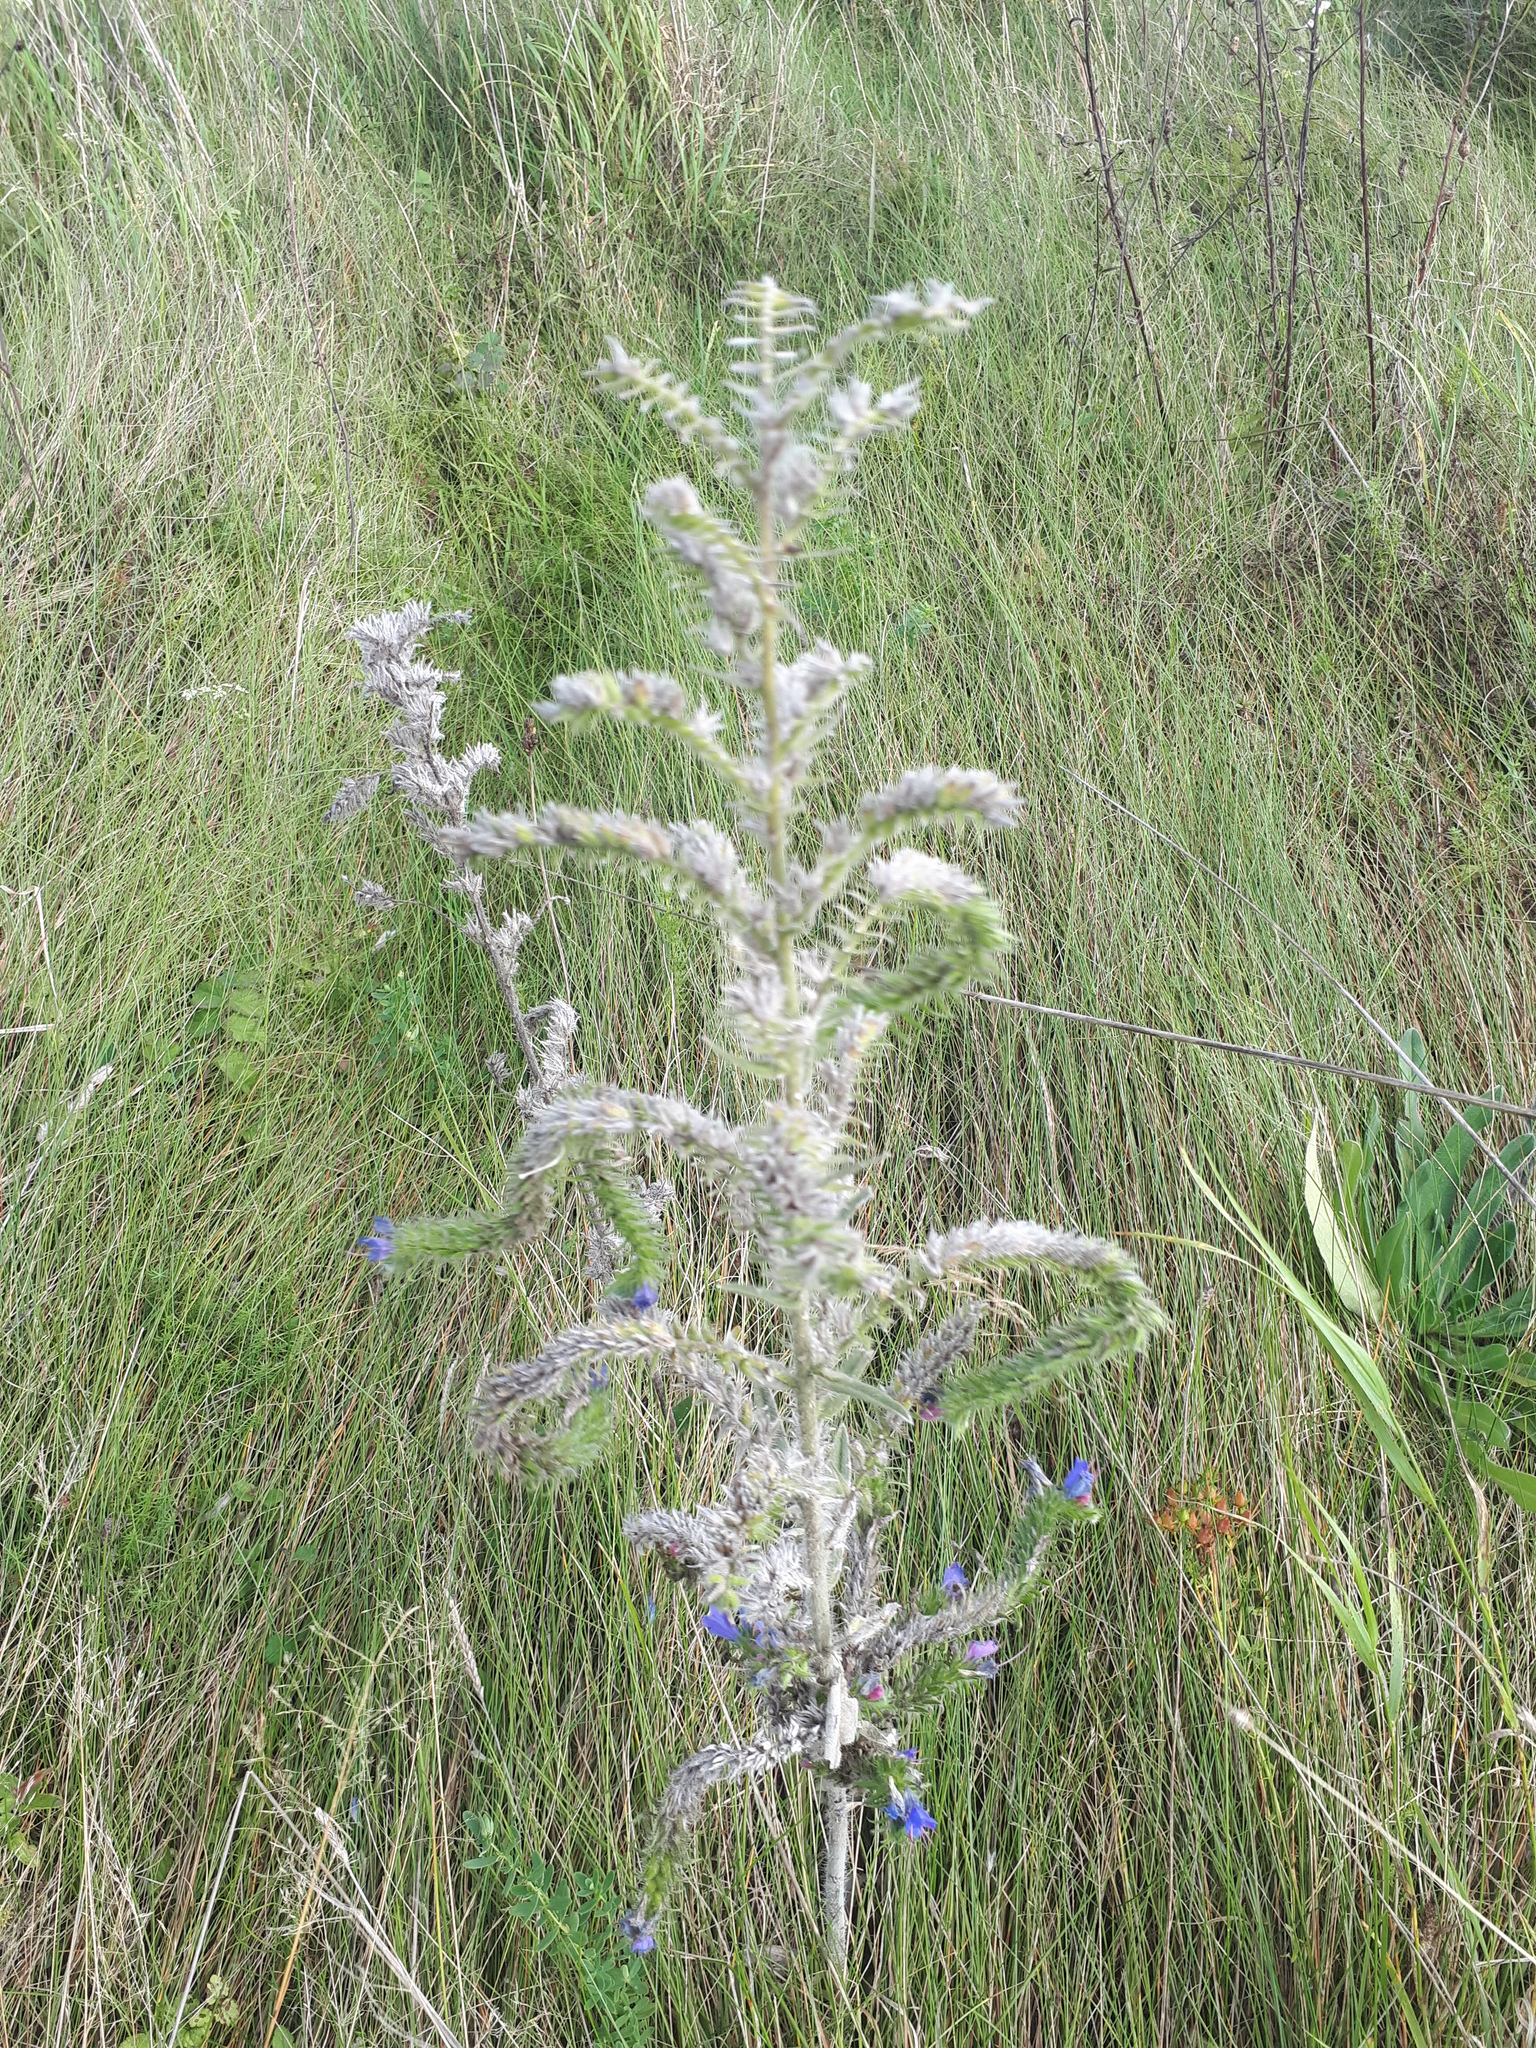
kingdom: Plantae
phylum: Tracheophyta
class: Magnoliopsida
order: Boraginales
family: Boraginaceae
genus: Echium
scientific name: Echium vulgare
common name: Common viper's bugloss
